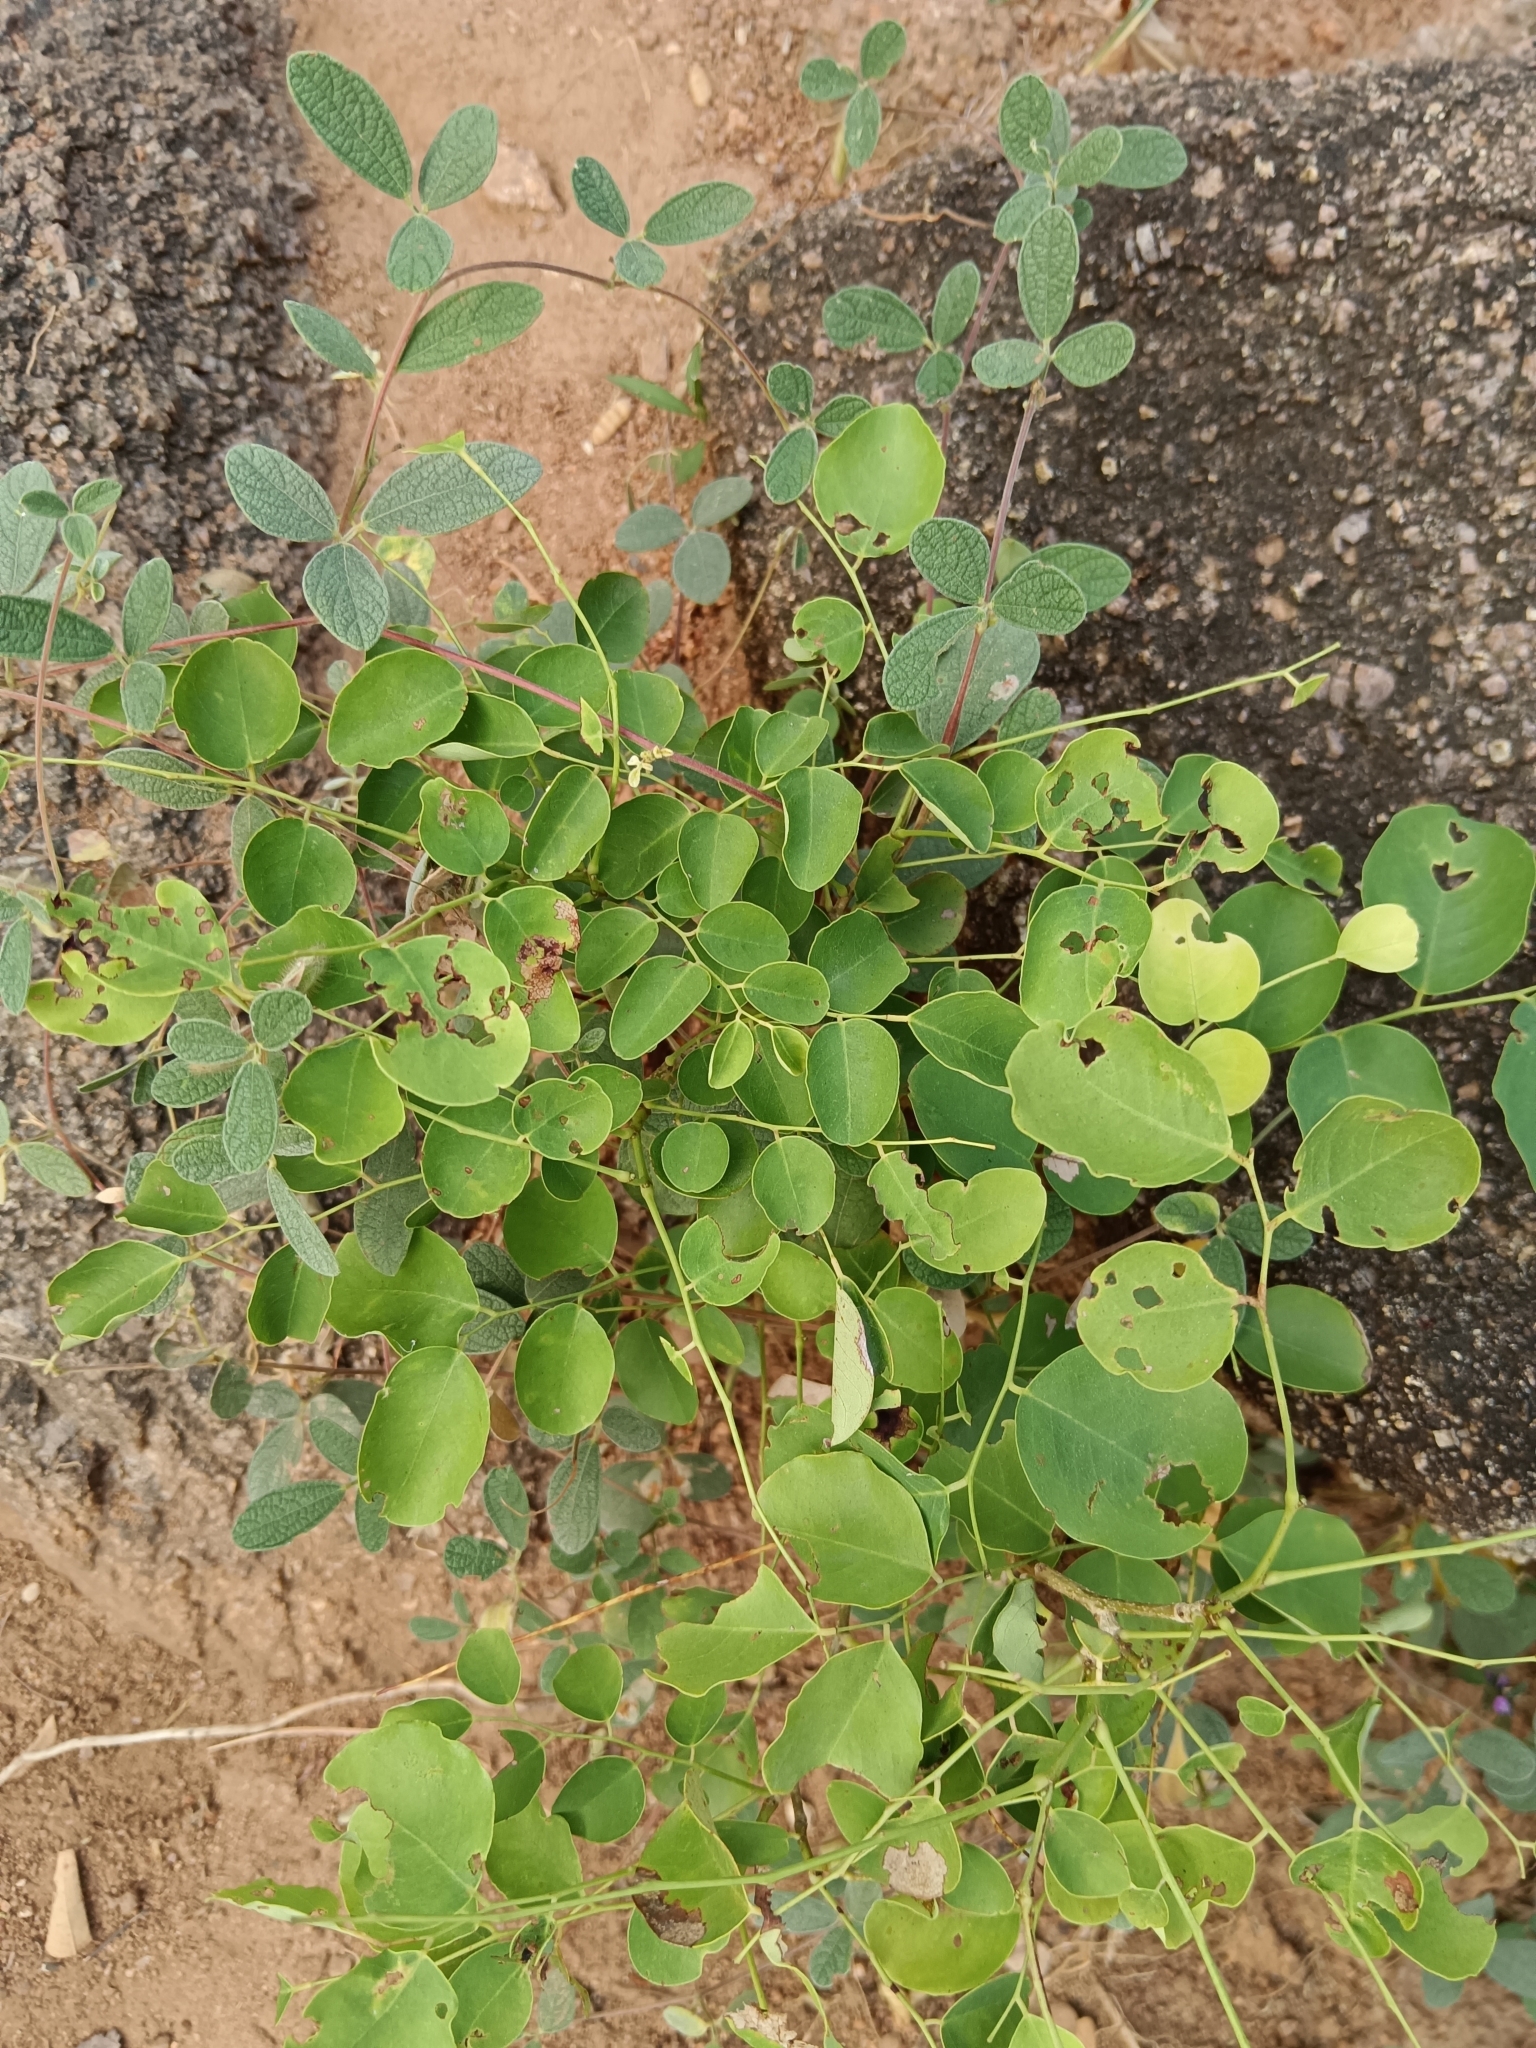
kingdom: Plantae
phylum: Tracheophyta
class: Magnoliopsida
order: Fabales
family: Fabaceae
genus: Dalbergia
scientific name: Dalbergia sissoo
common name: Indian rosewood
